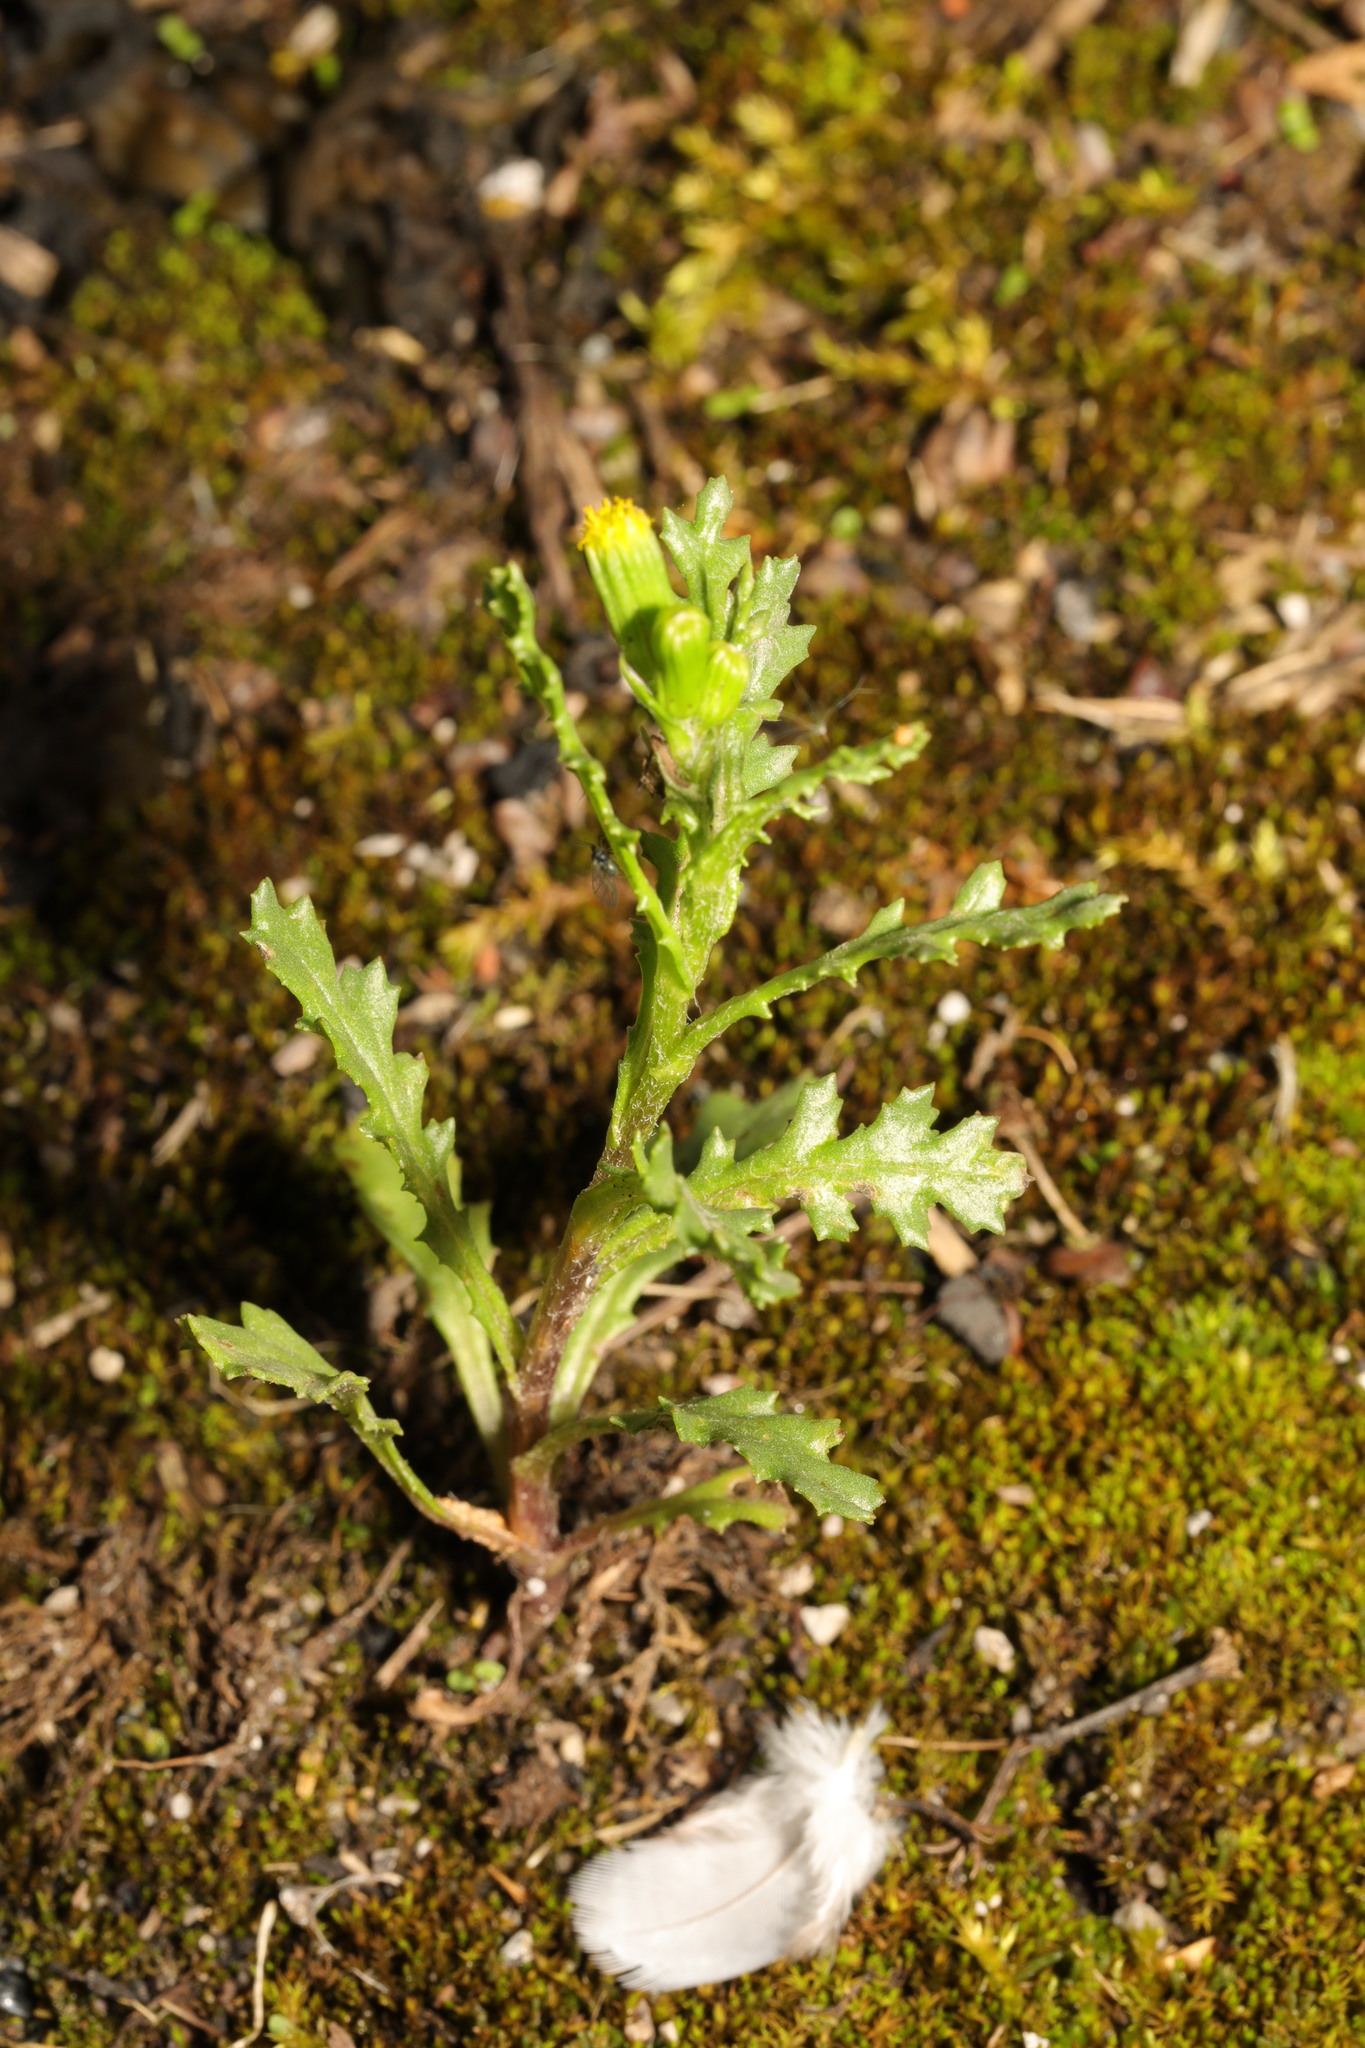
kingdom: Plantae
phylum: Tracheophyta
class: Magnoliopsida
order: Asterales
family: Asteraceae
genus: Senecio
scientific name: Senecio vulgaris
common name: Old-man-in-the-spring
